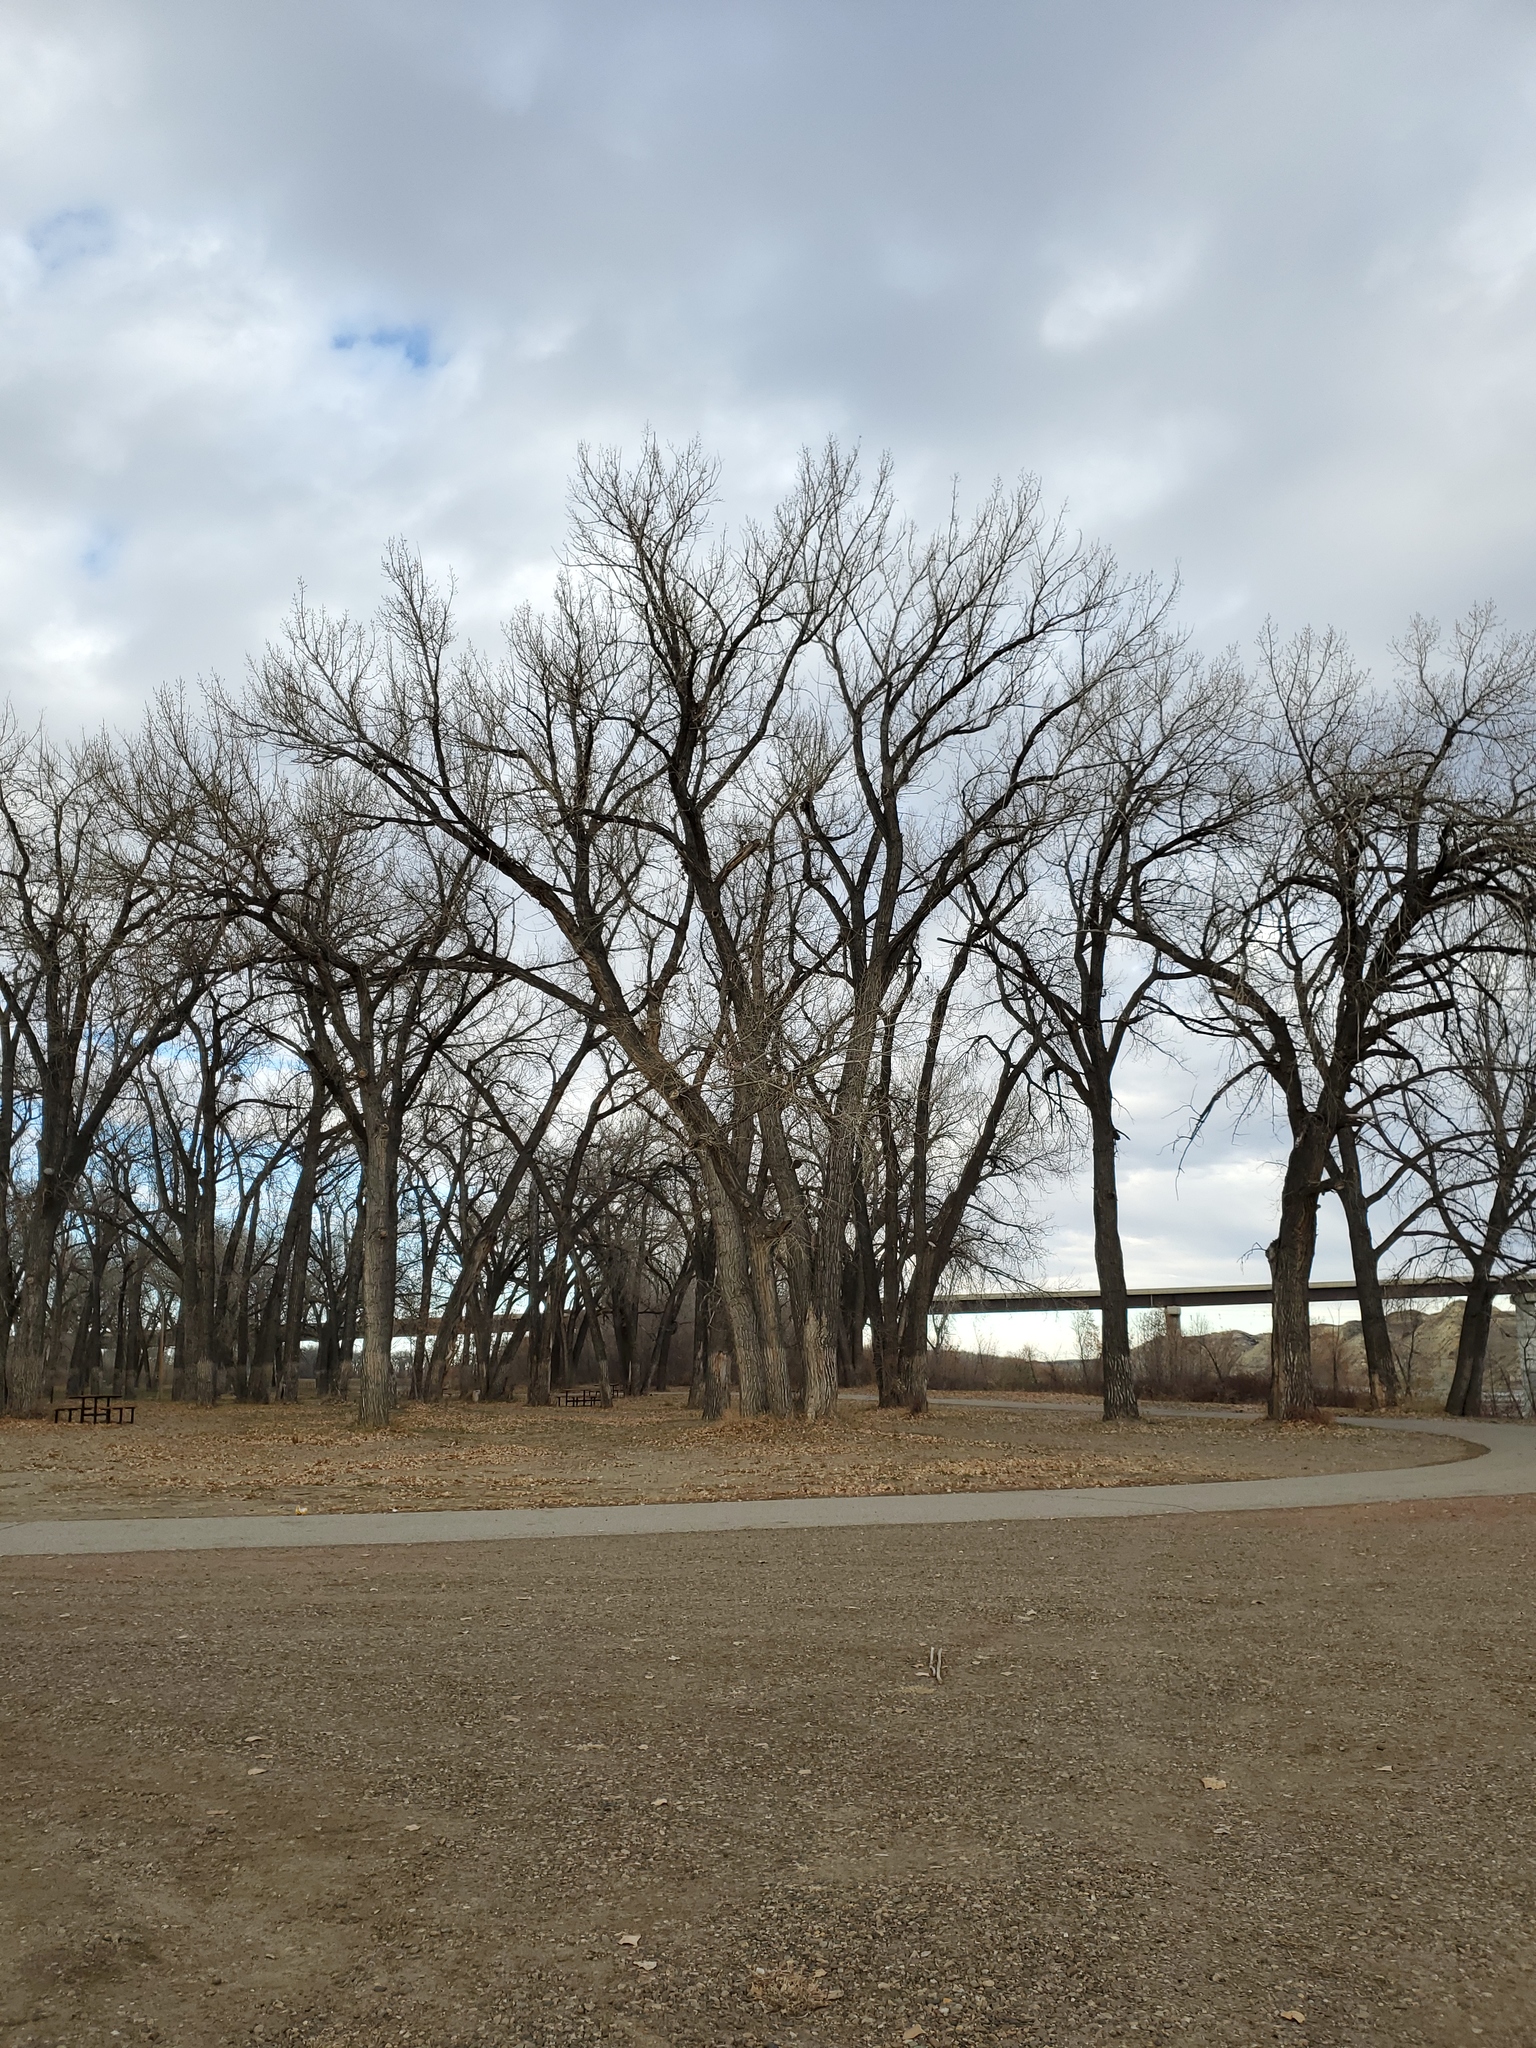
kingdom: Plantae
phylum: Tracheophyta
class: Magnoliopsida
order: Malpighiales
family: Salicaceae
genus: Populus
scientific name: Populus deltoides
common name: Eastern cottonwood
